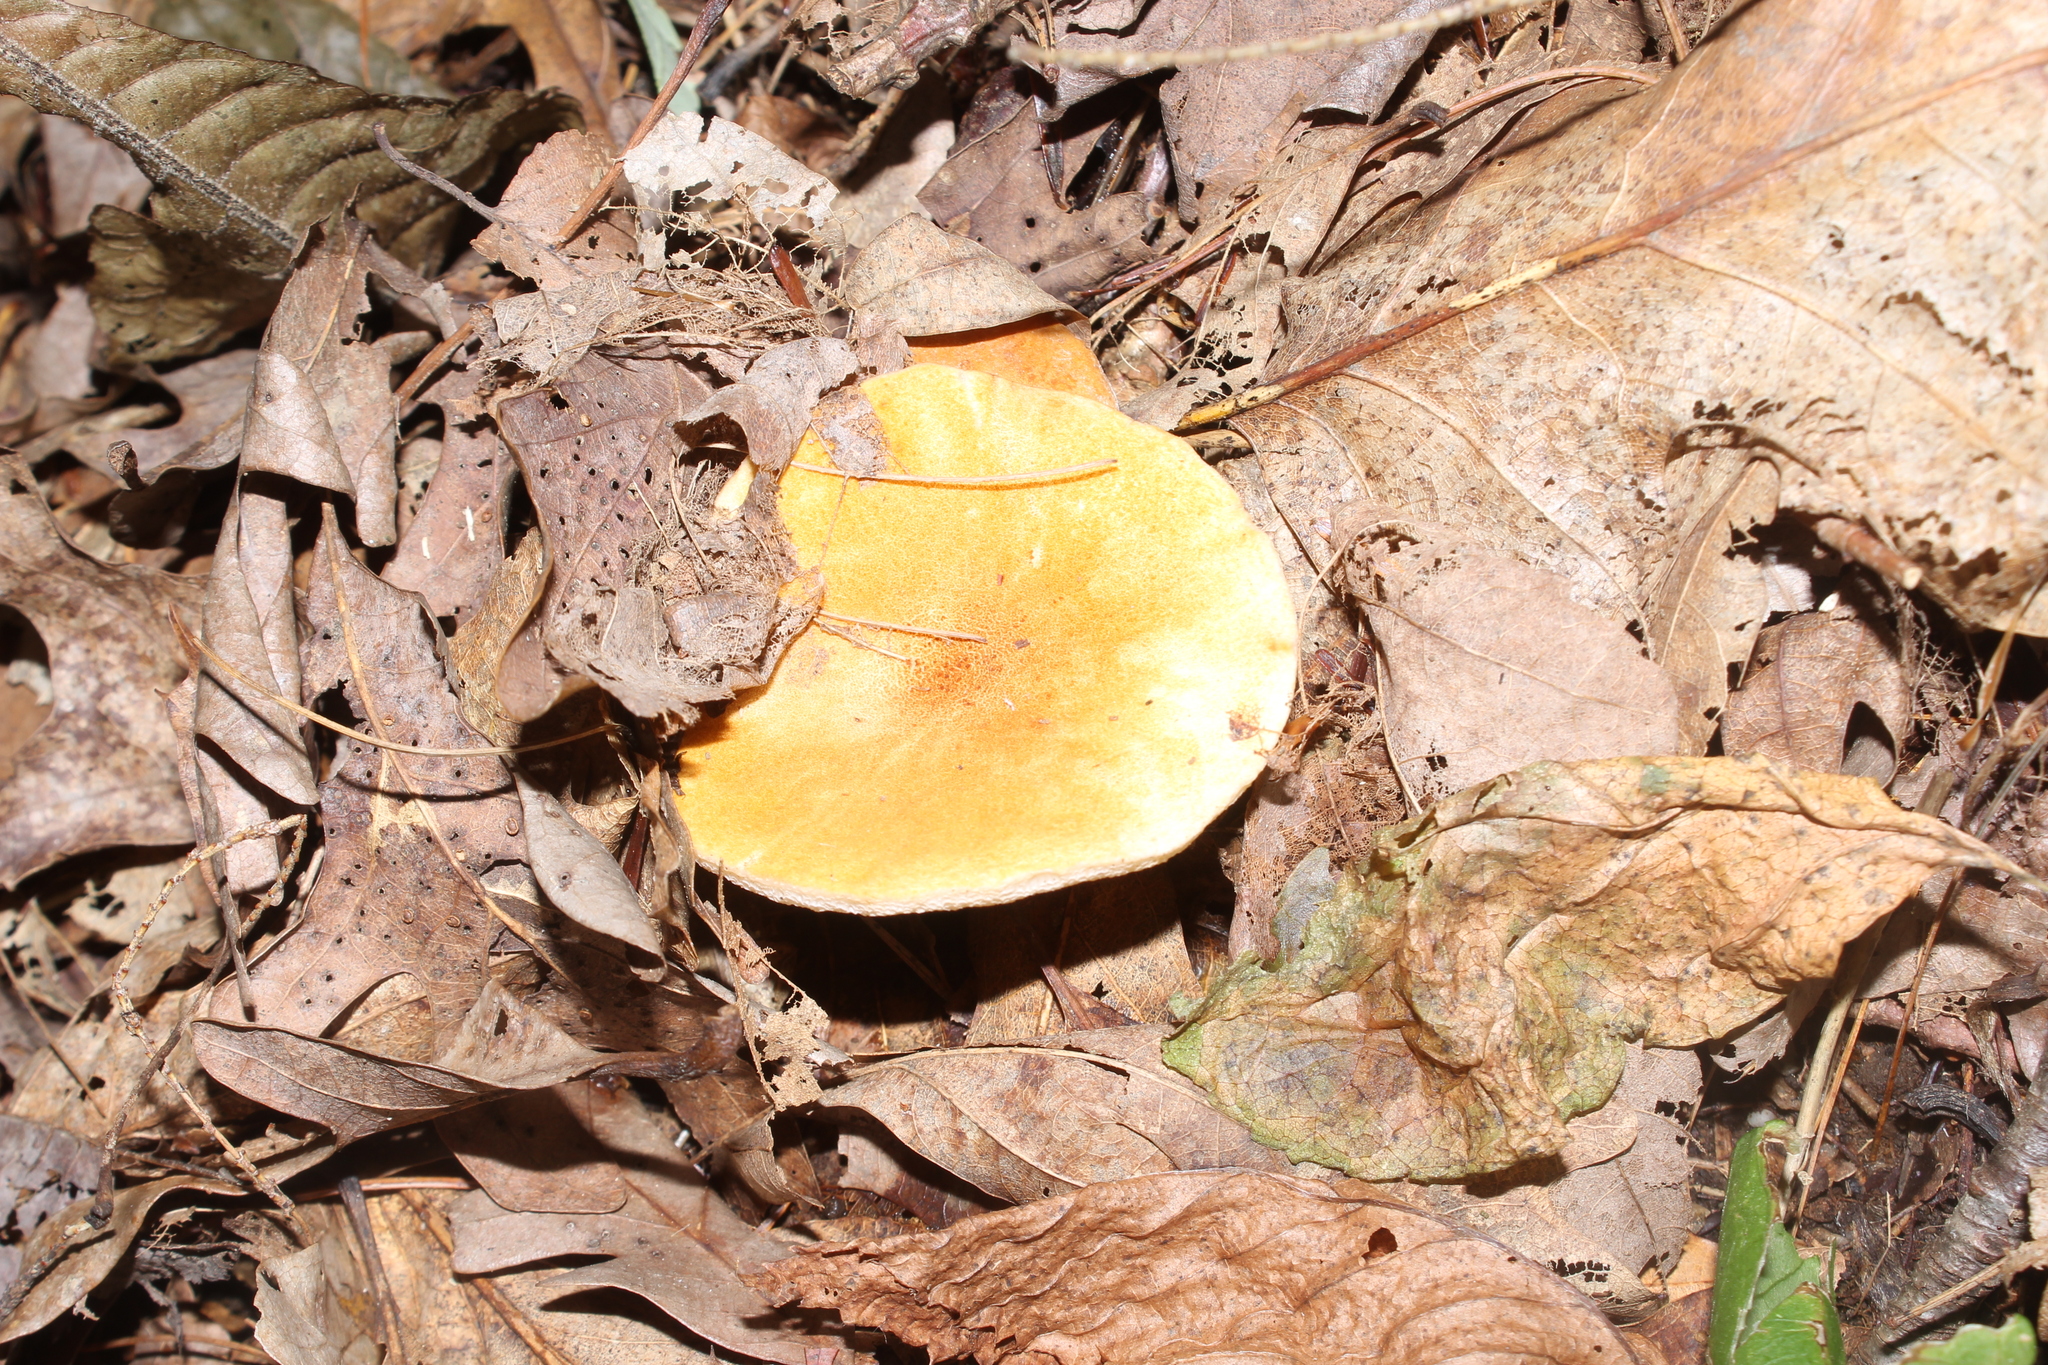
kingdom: Fungi
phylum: Basidiomycota
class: Agaricomycetes
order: Boletales
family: Gyroporaceae
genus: Gyroporus
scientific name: Gyroporus borealis
